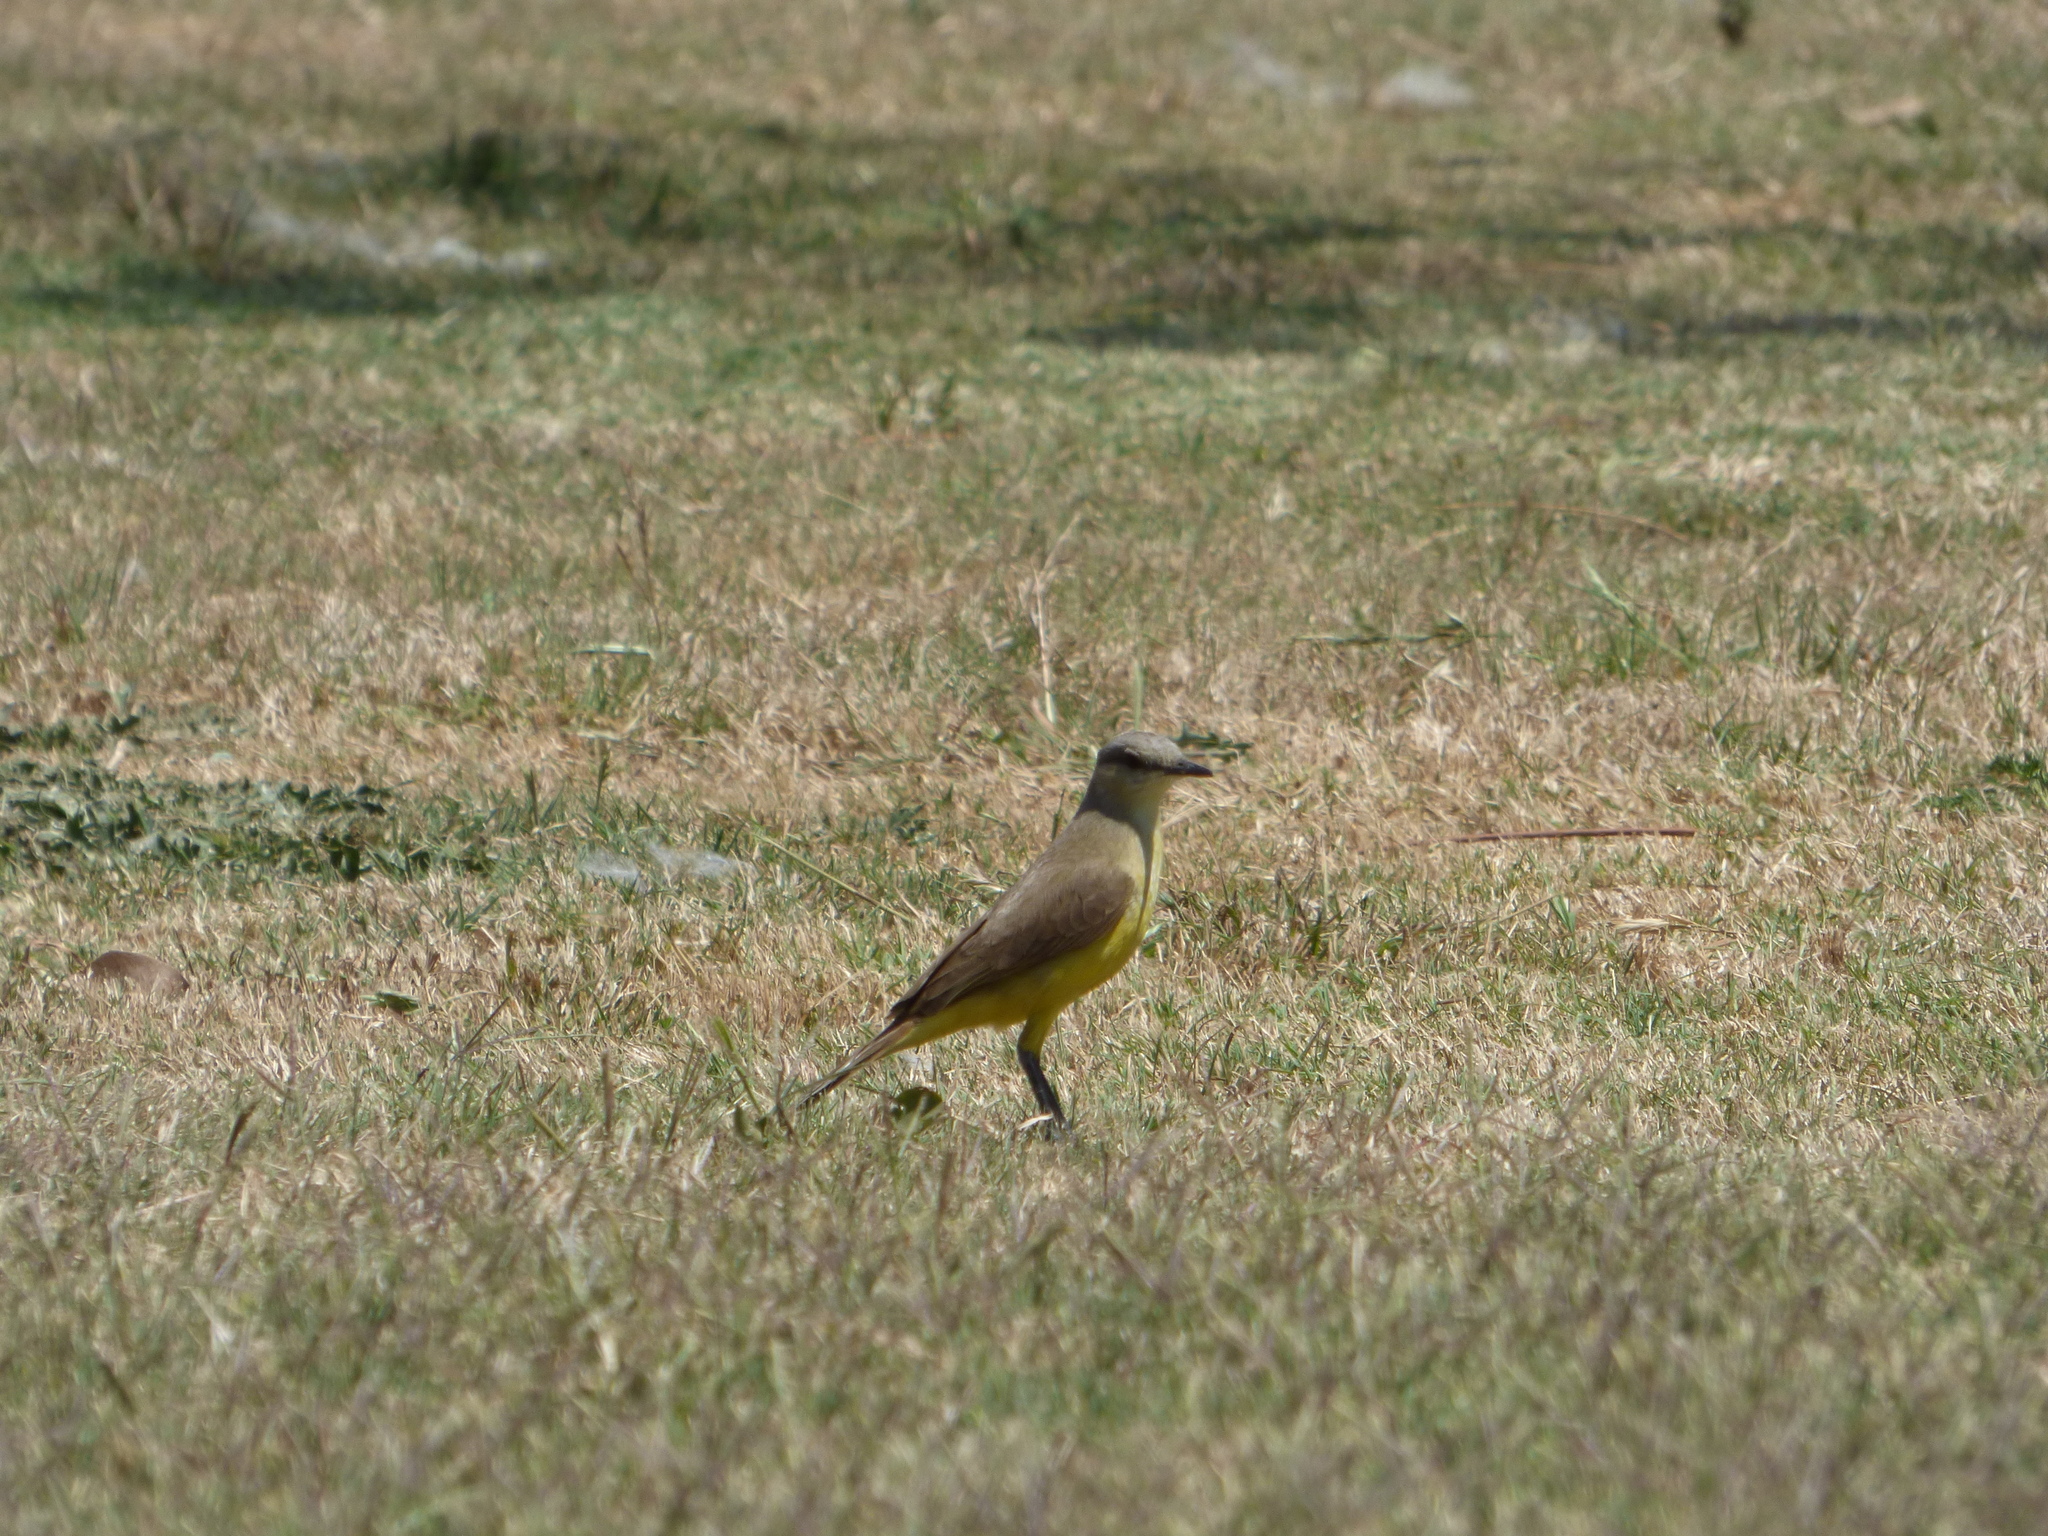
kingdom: Animalia
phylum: Chordata
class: Aves
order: Passeriformes
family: Tyrannidae
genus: Machetornis
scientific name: Machetornis rixosa
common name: Cattle tyrant
